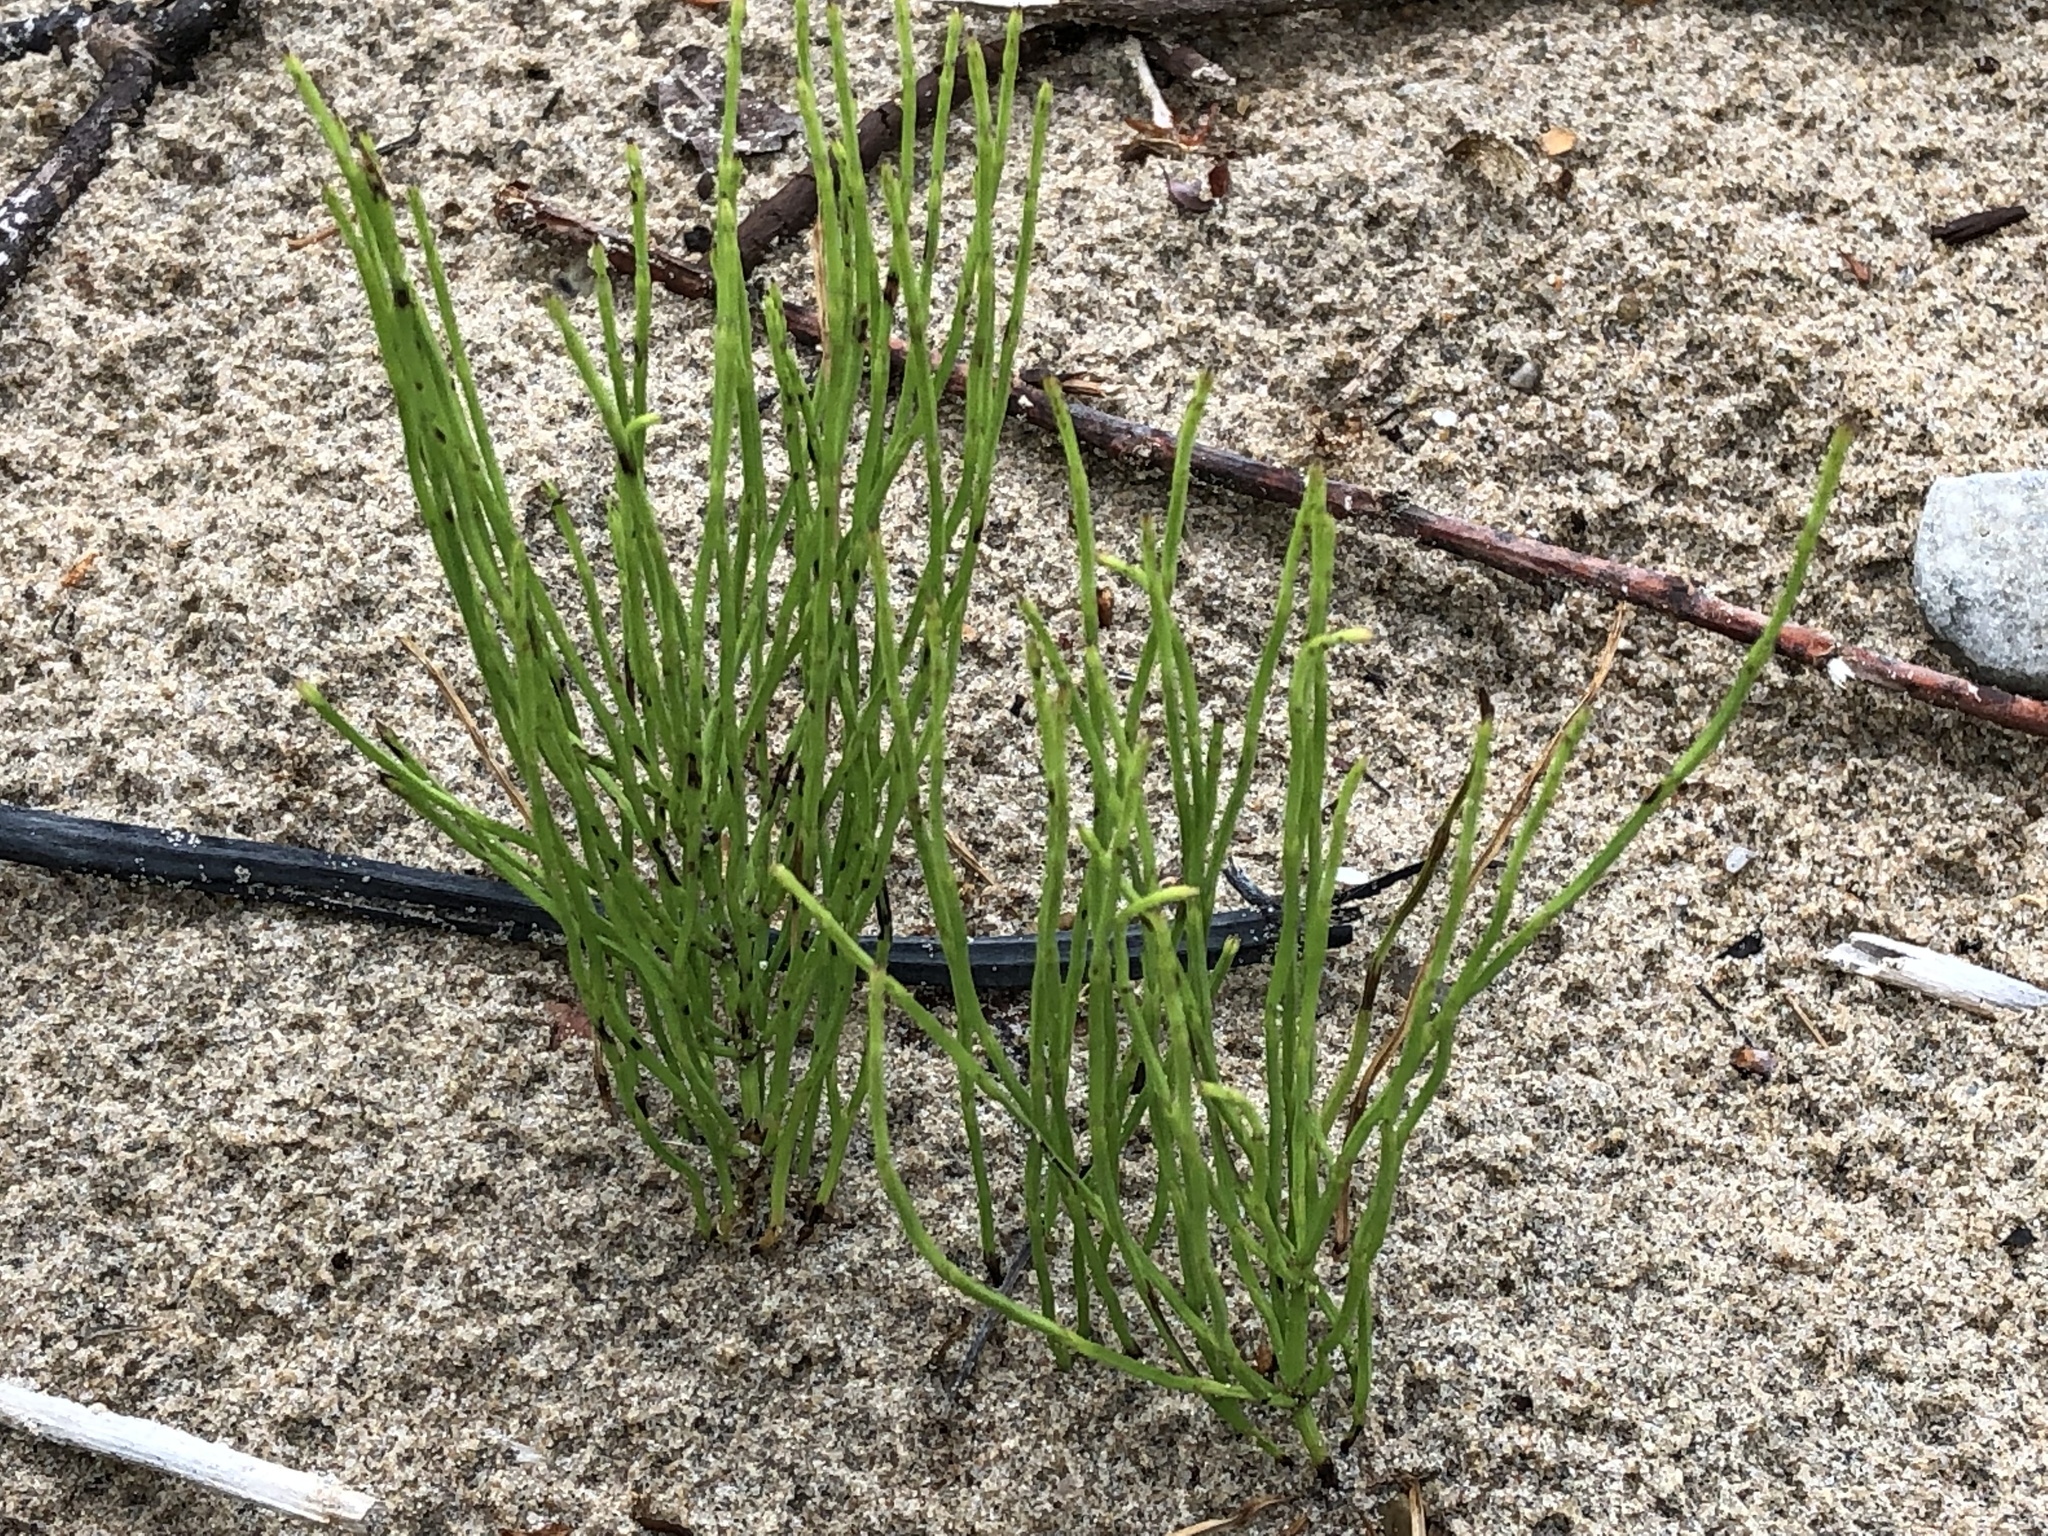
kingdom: Plantae
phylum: Tracheophyta
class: Polypodiopsida
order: Equisetales
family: Equisetaceae
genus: Equisetum
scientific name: Equisetum arvense
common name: Field horsetail
